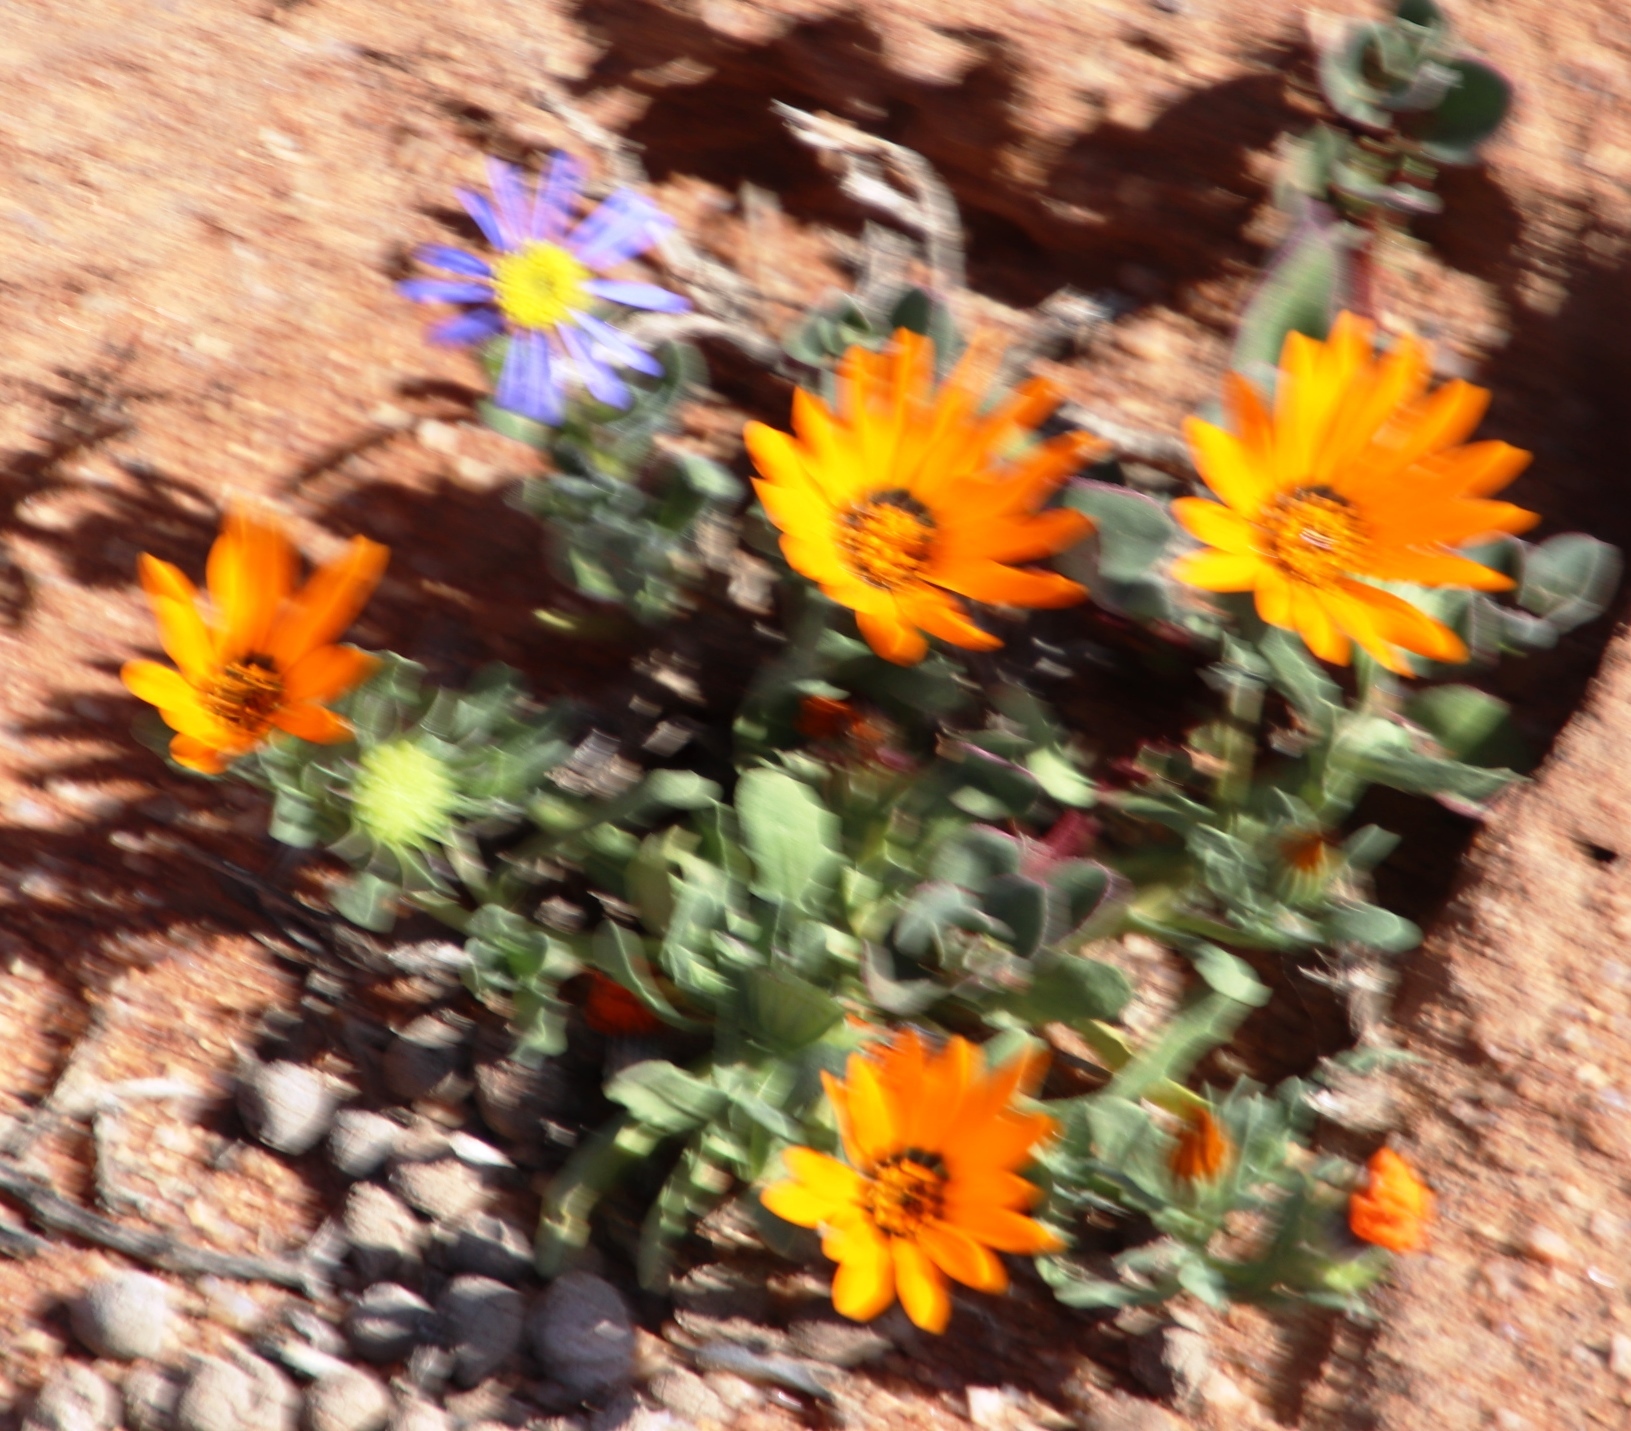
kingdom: Plantae
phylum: Tracheophyta
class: Magnoliopsida
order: Asterales
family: Asteraceae
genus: Dimorphotheca
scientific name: Dimorphotheca sinuata
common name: Glandular cape marigold
